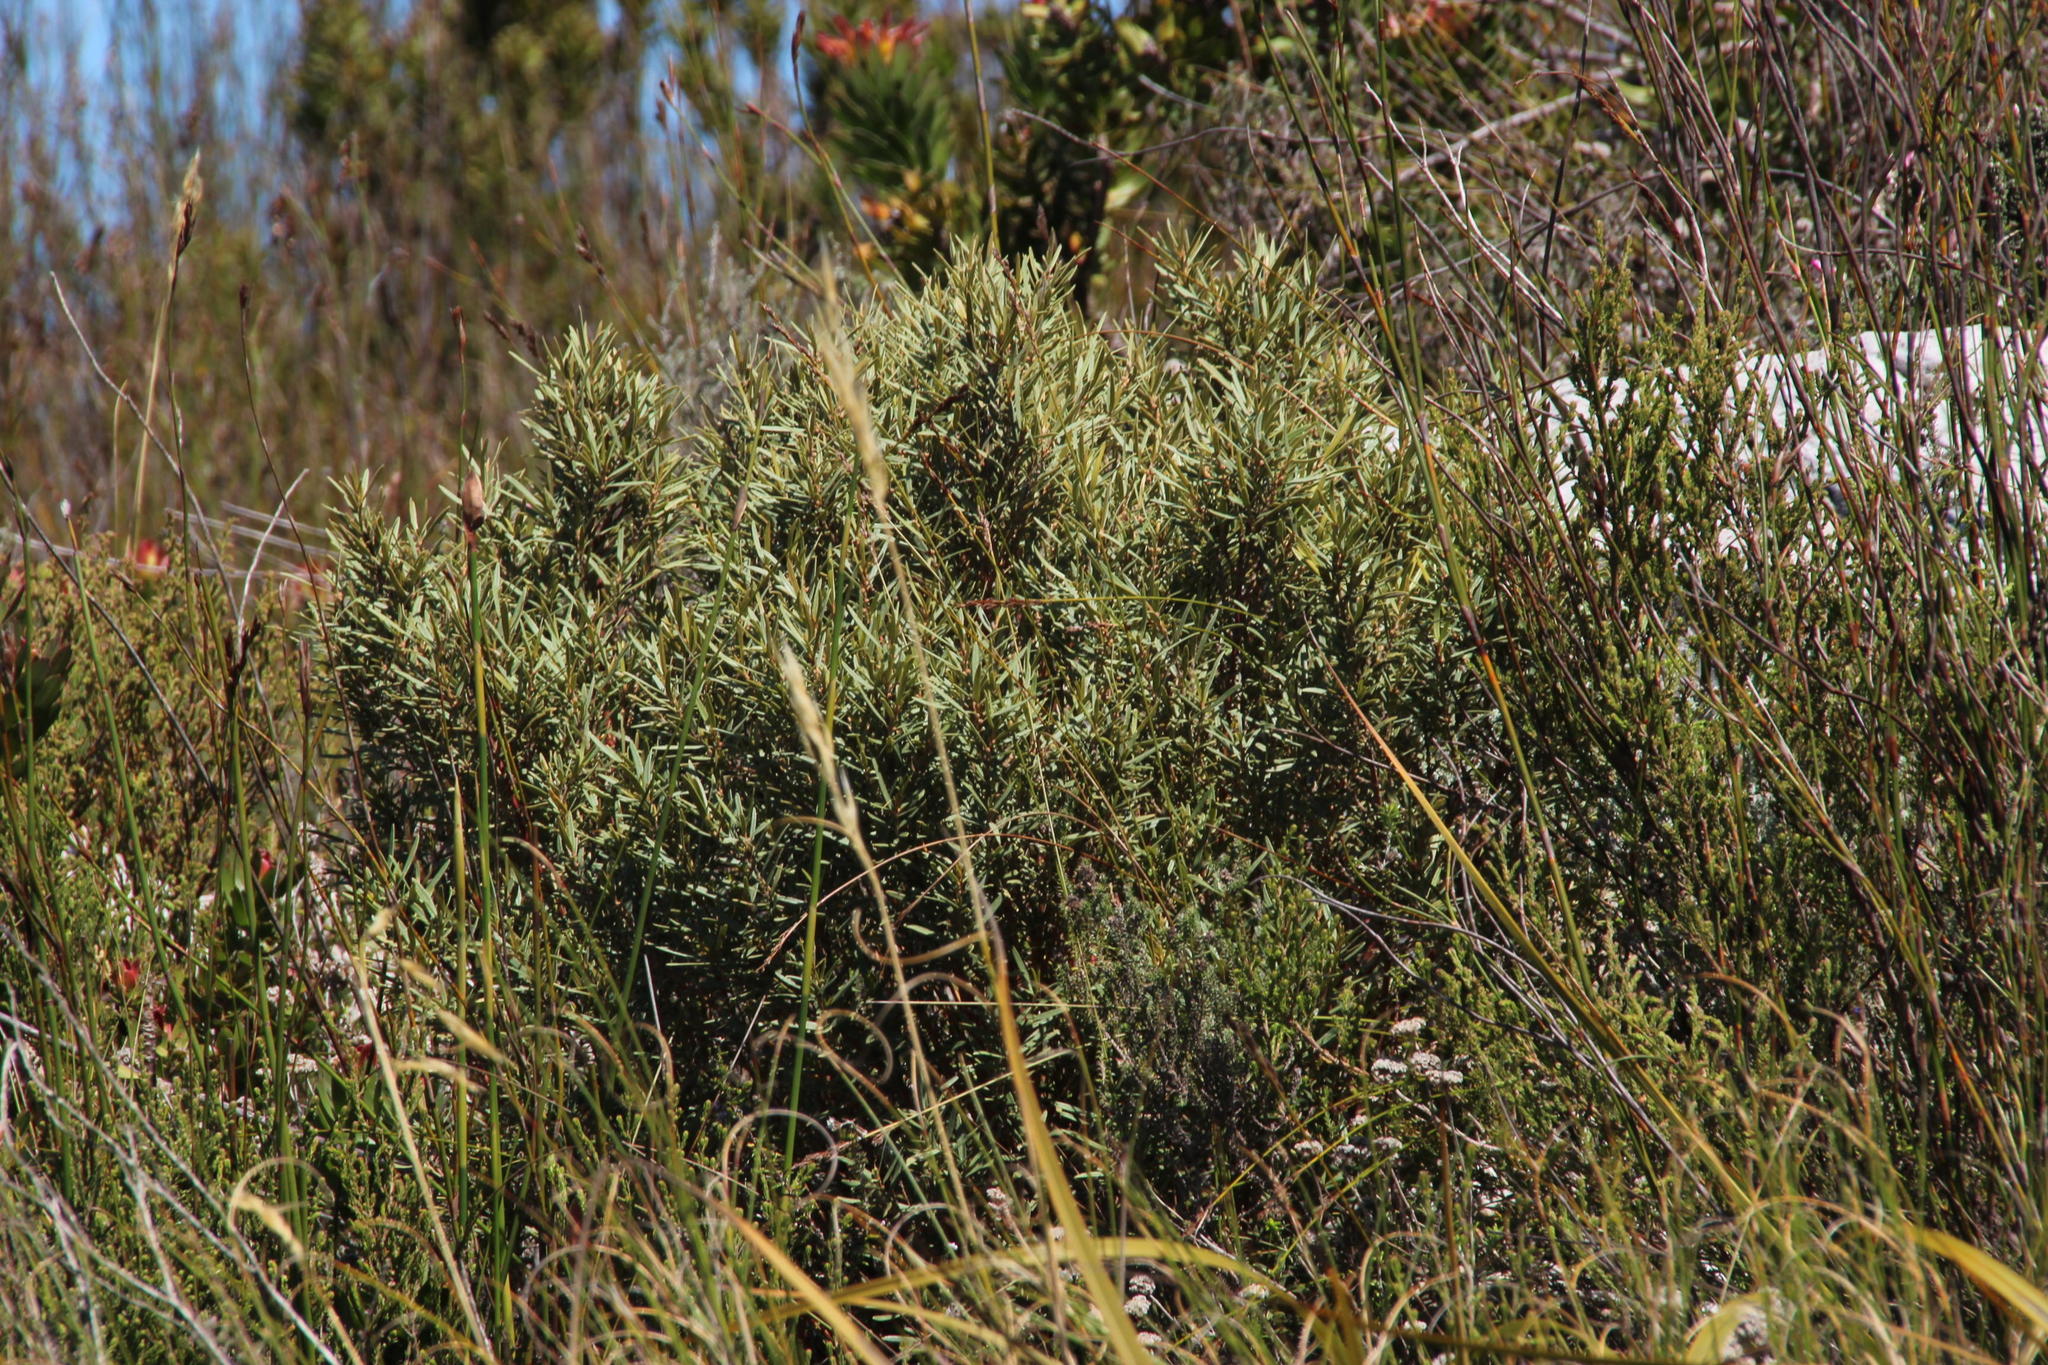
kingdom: Plantae
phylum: Tracheophyta
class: Magnoliopsida
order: Cornales
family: Grubbiaceae
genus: Grubbia
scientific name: Grubbia tomentosa
